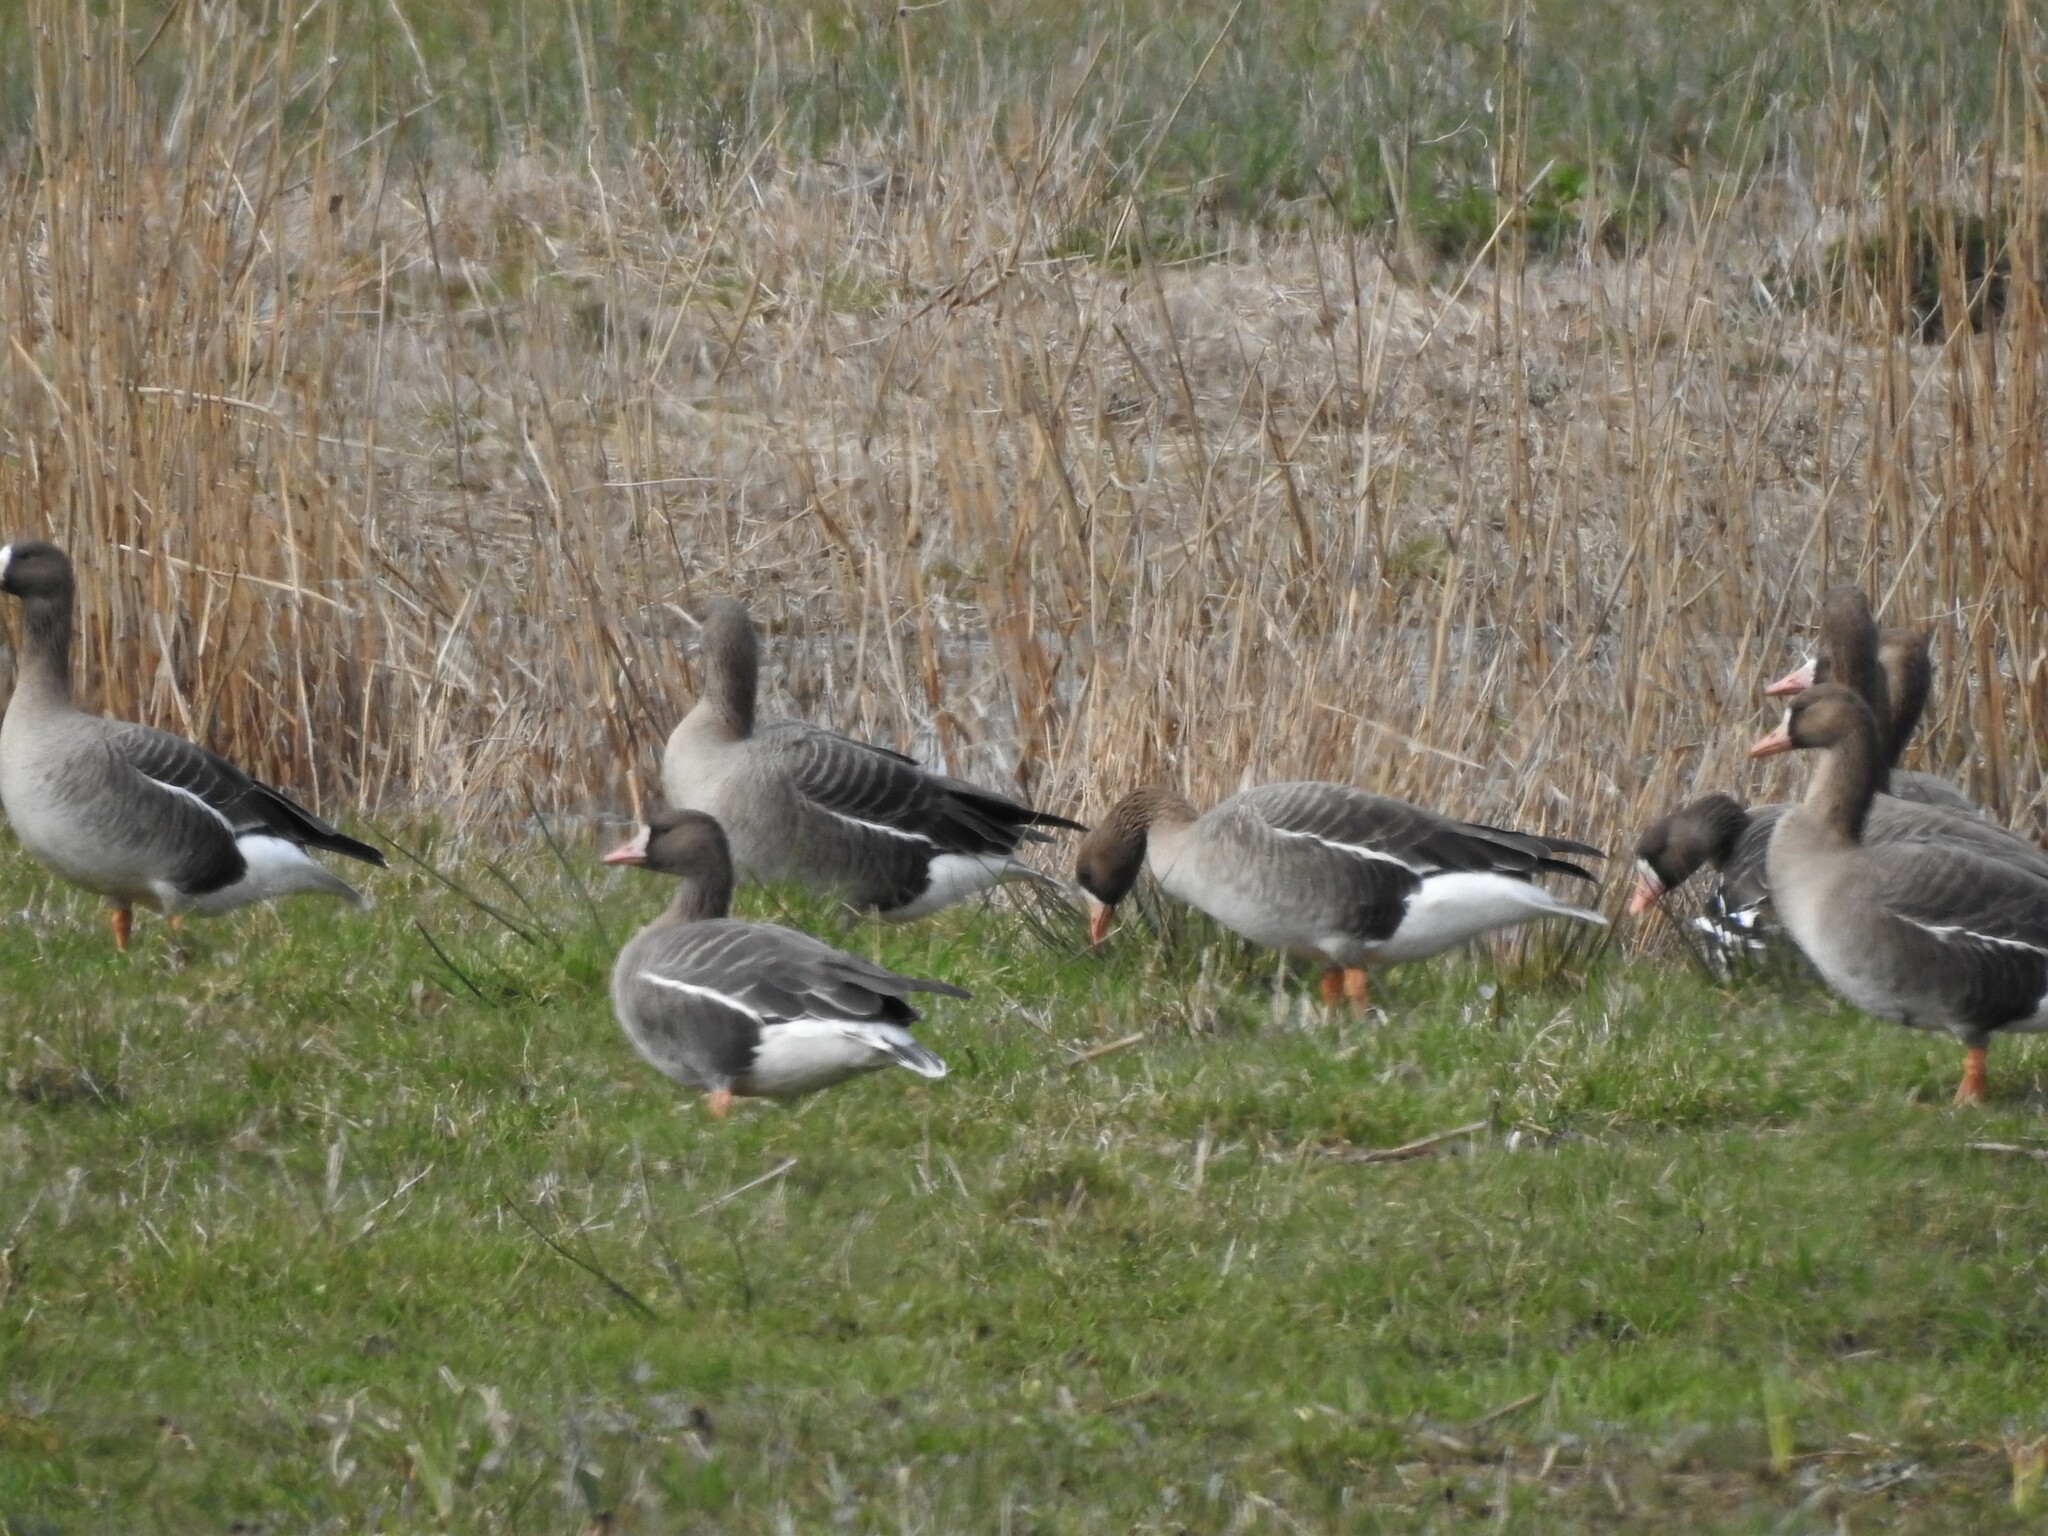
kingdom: Animalia
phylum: Chordata
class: Aves
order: Anseriformes
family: Anatidae
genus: Anser
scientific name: Anser albifrons
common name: Greater white-fronted goose
